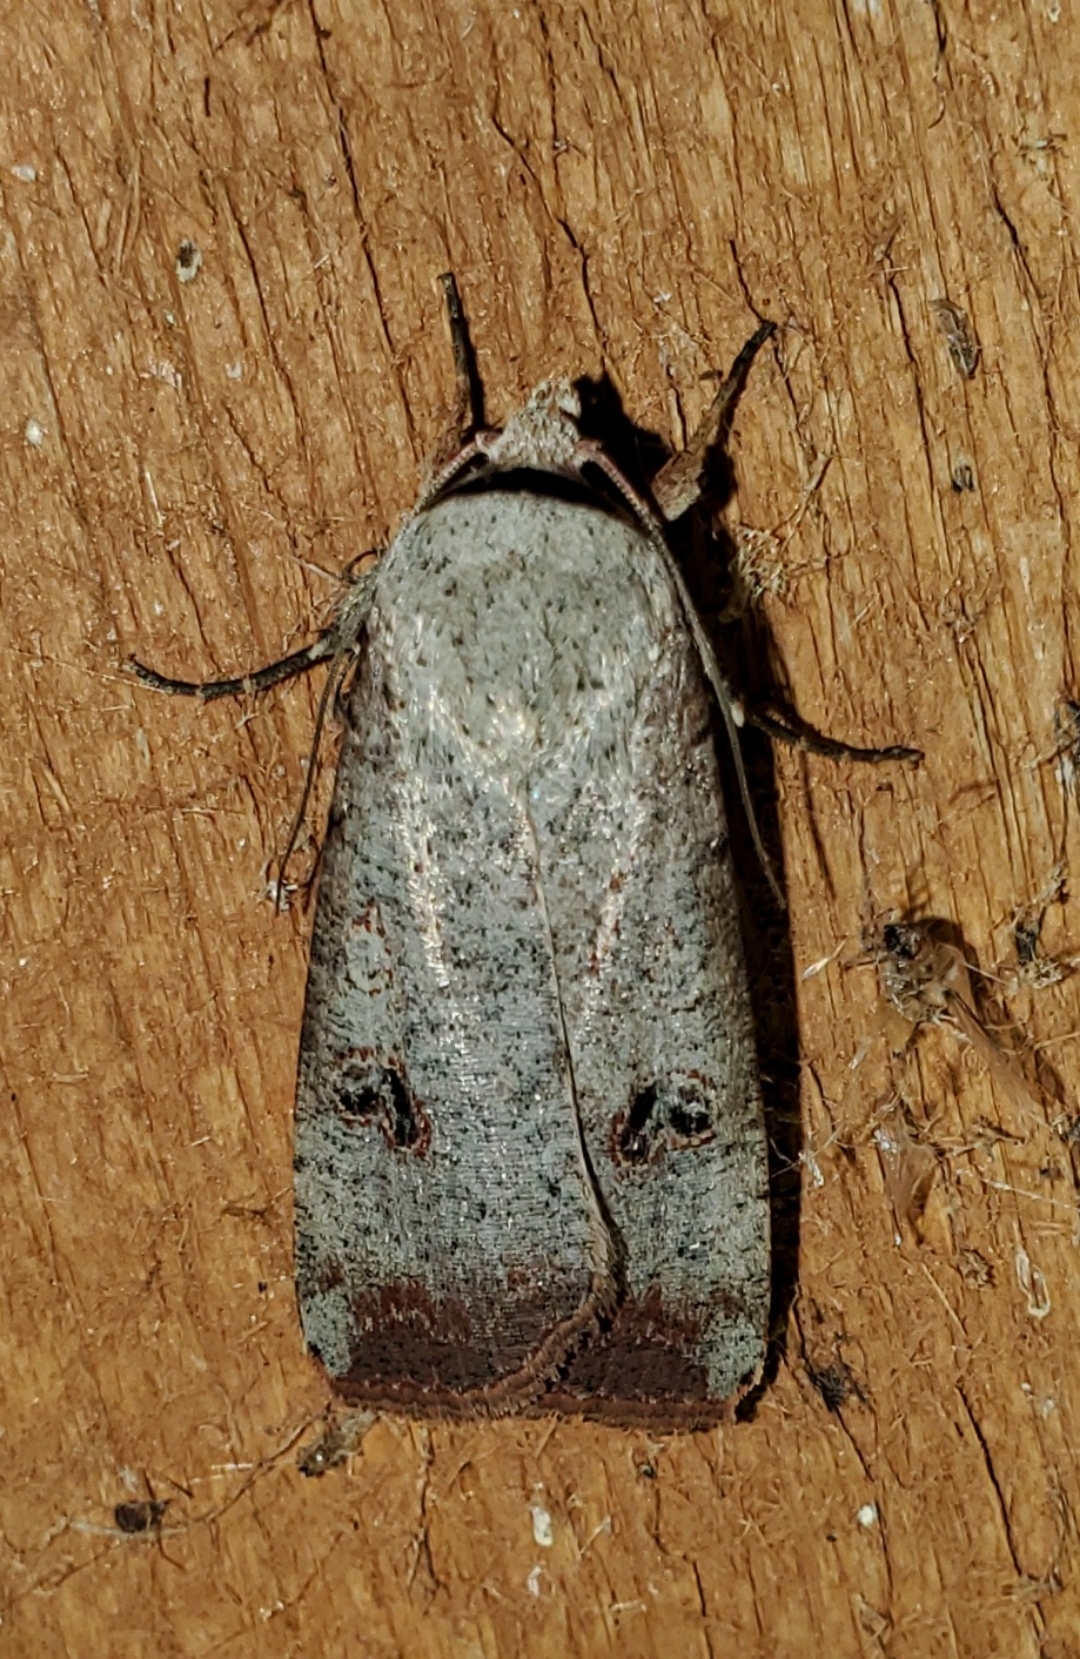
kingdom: Animalia
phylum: Arthropoda
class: Insecta
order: Lepidoptera
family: Noctuidae
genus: Anicla
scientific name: Anicla infecta
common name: Green cutworm
